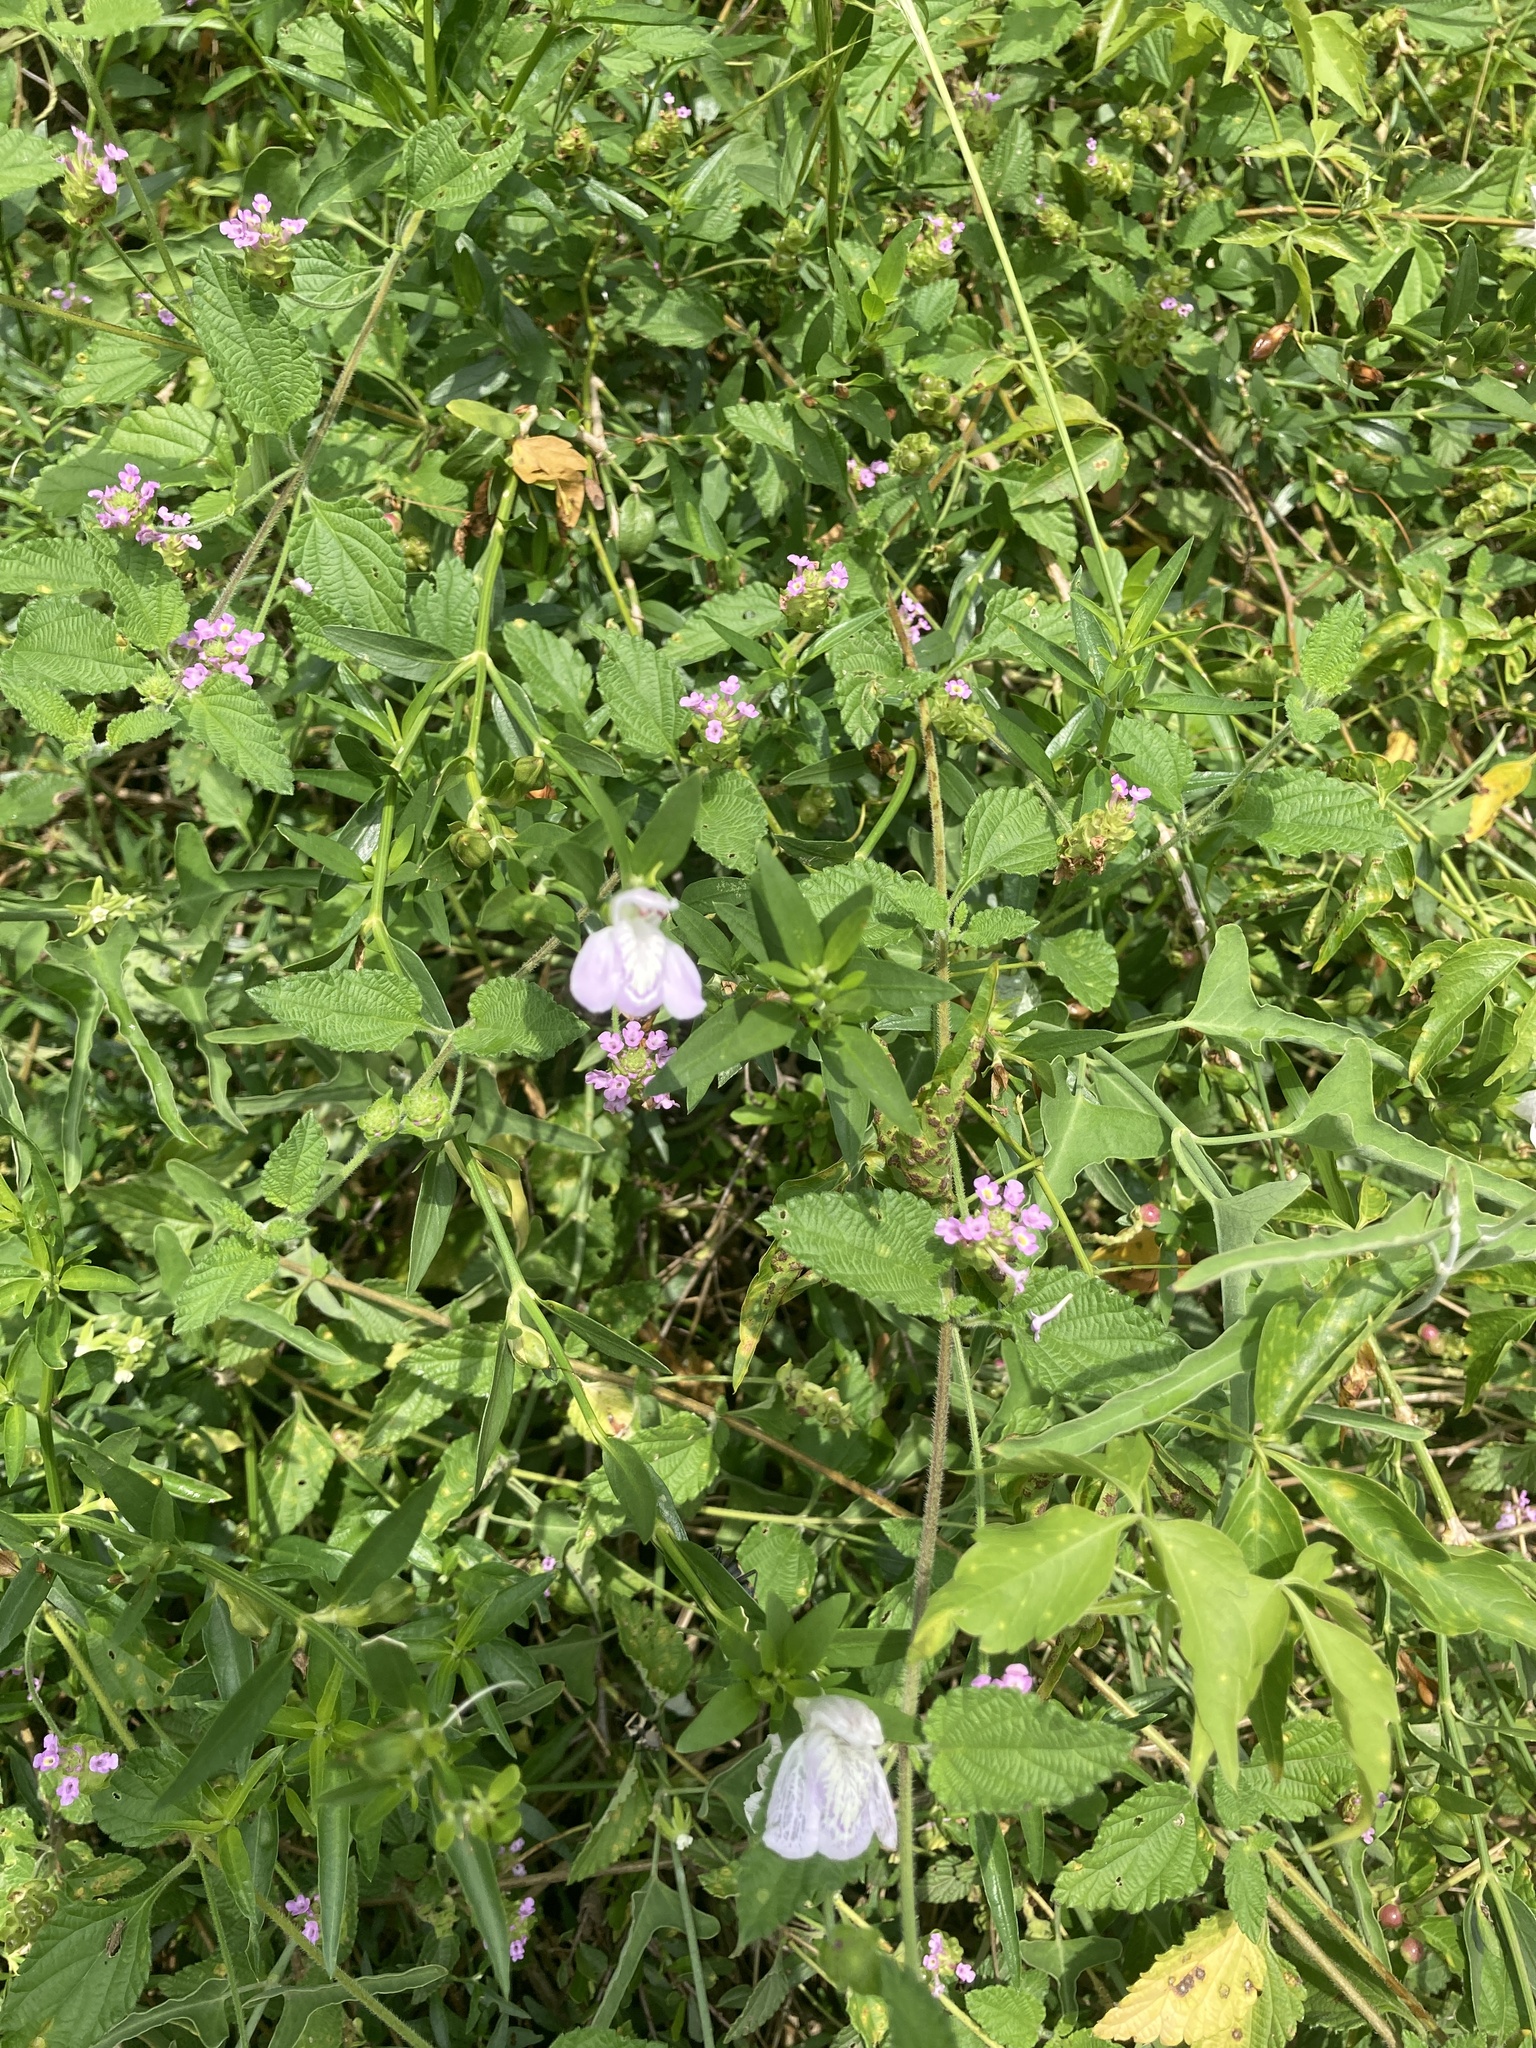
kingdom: Plantae
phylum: Tracheophyta
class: Magnoliopsida
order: Lamiales
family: Acanthaceae
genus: Poikilacanthus
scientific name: Poikilacanthus tweedianus
